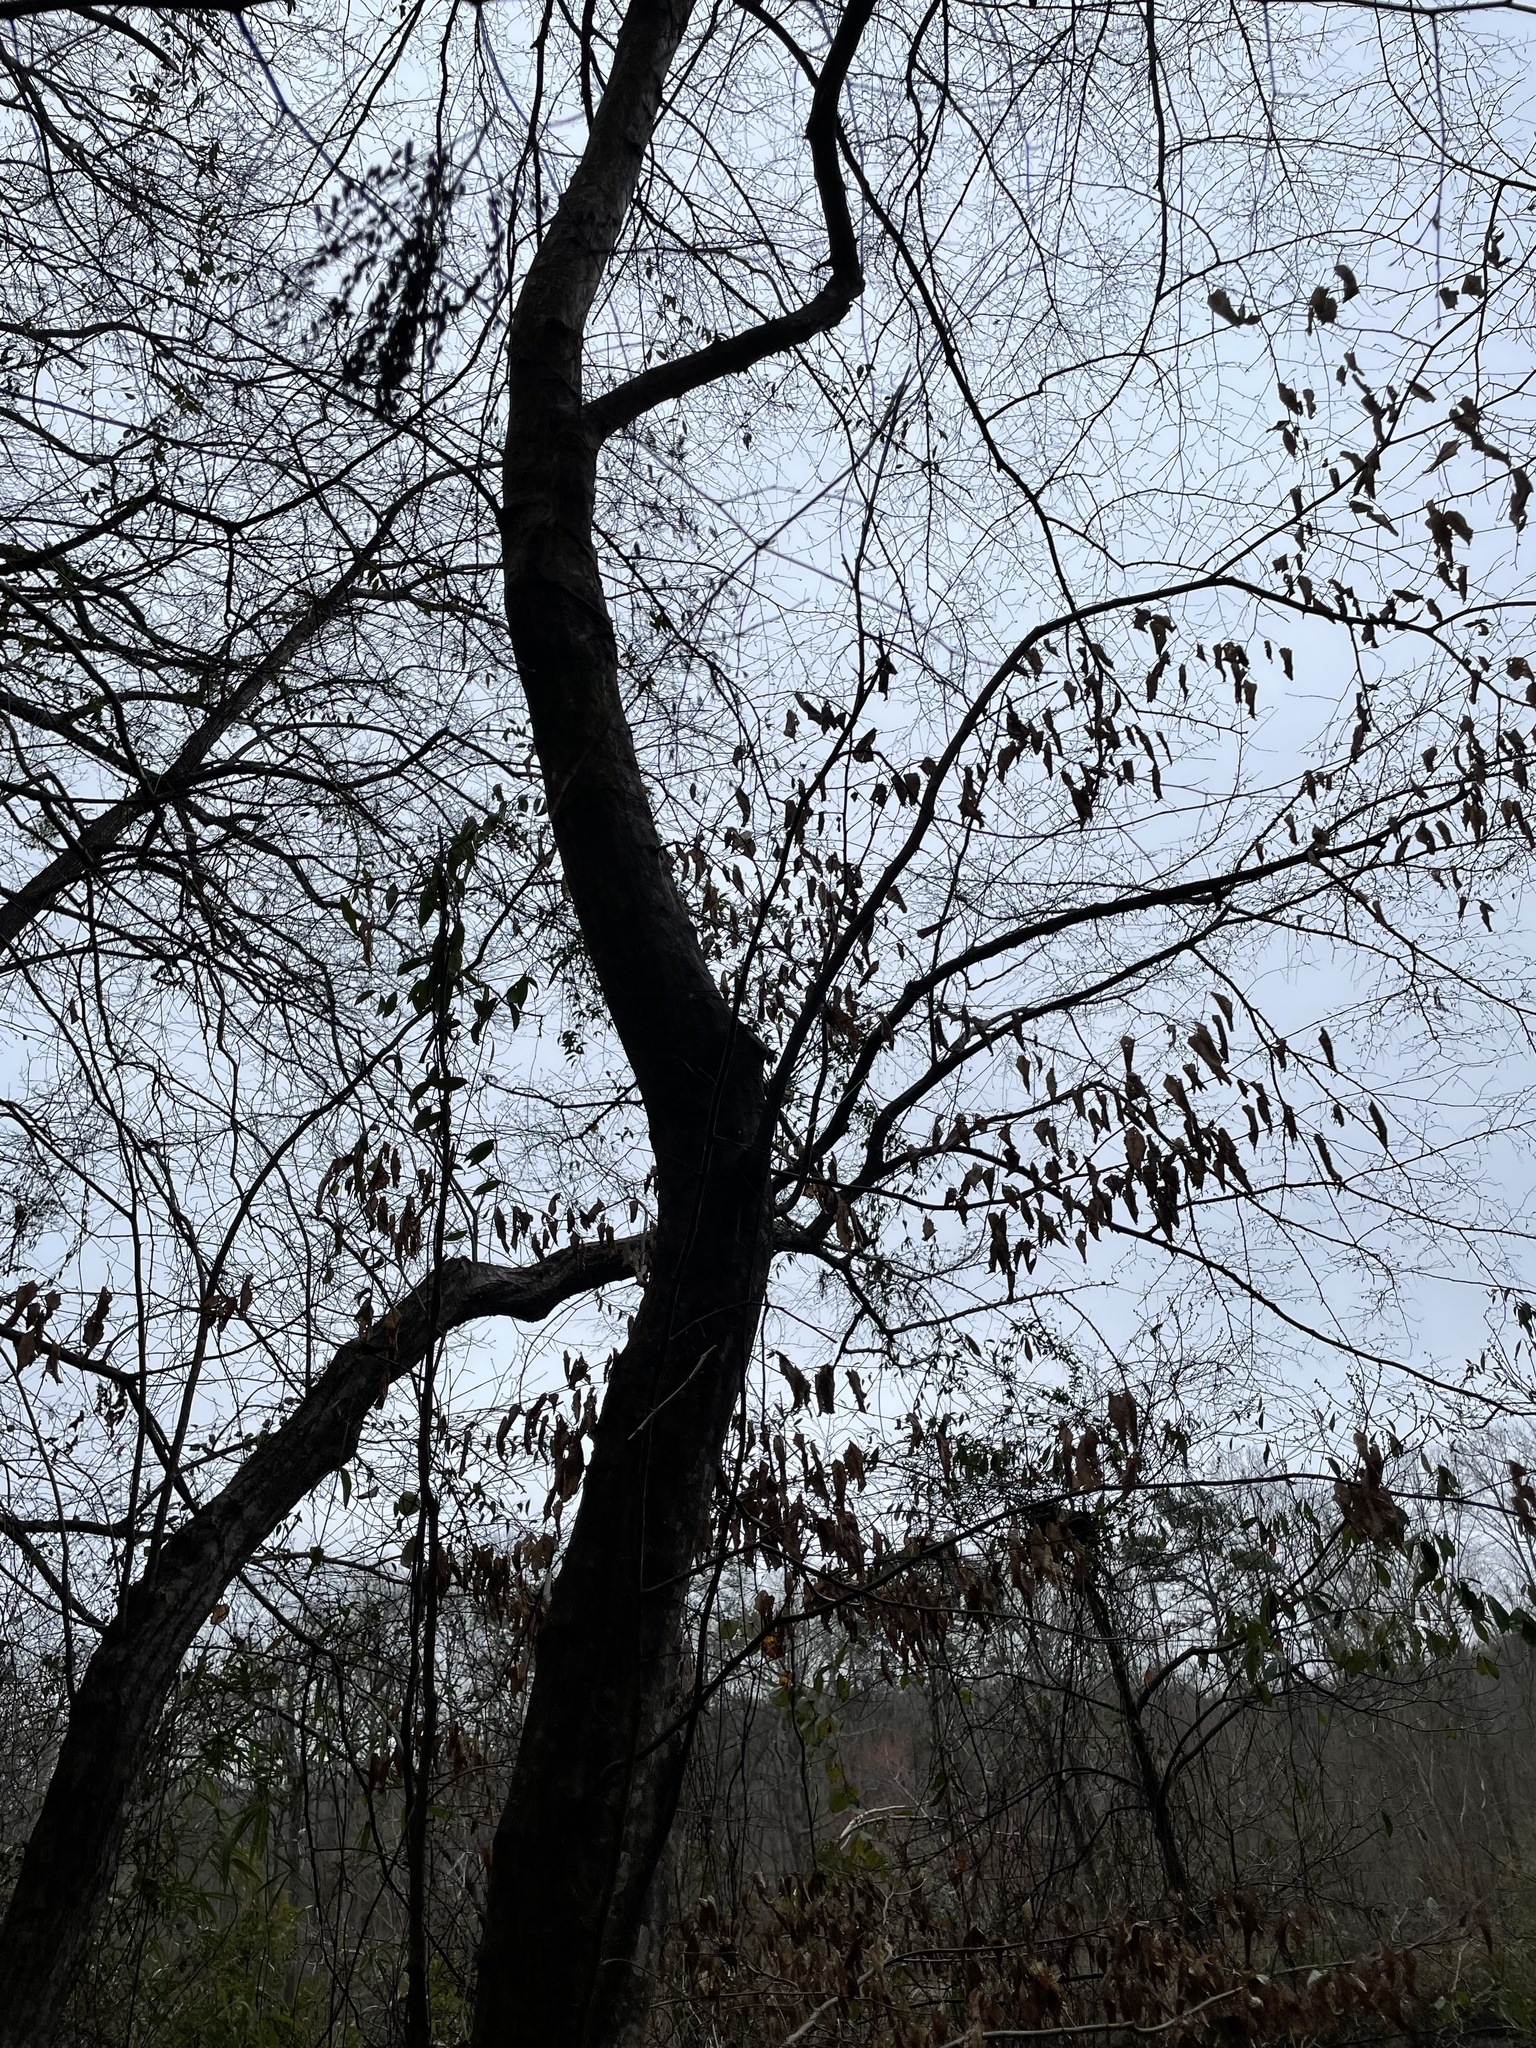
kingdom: Plantae
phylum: Tracheophyta
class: Magnoliopsida
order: Fagales
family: Betulaceae
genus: Carpinus
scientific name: Carpinus caroliniana
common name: American hornbeam
